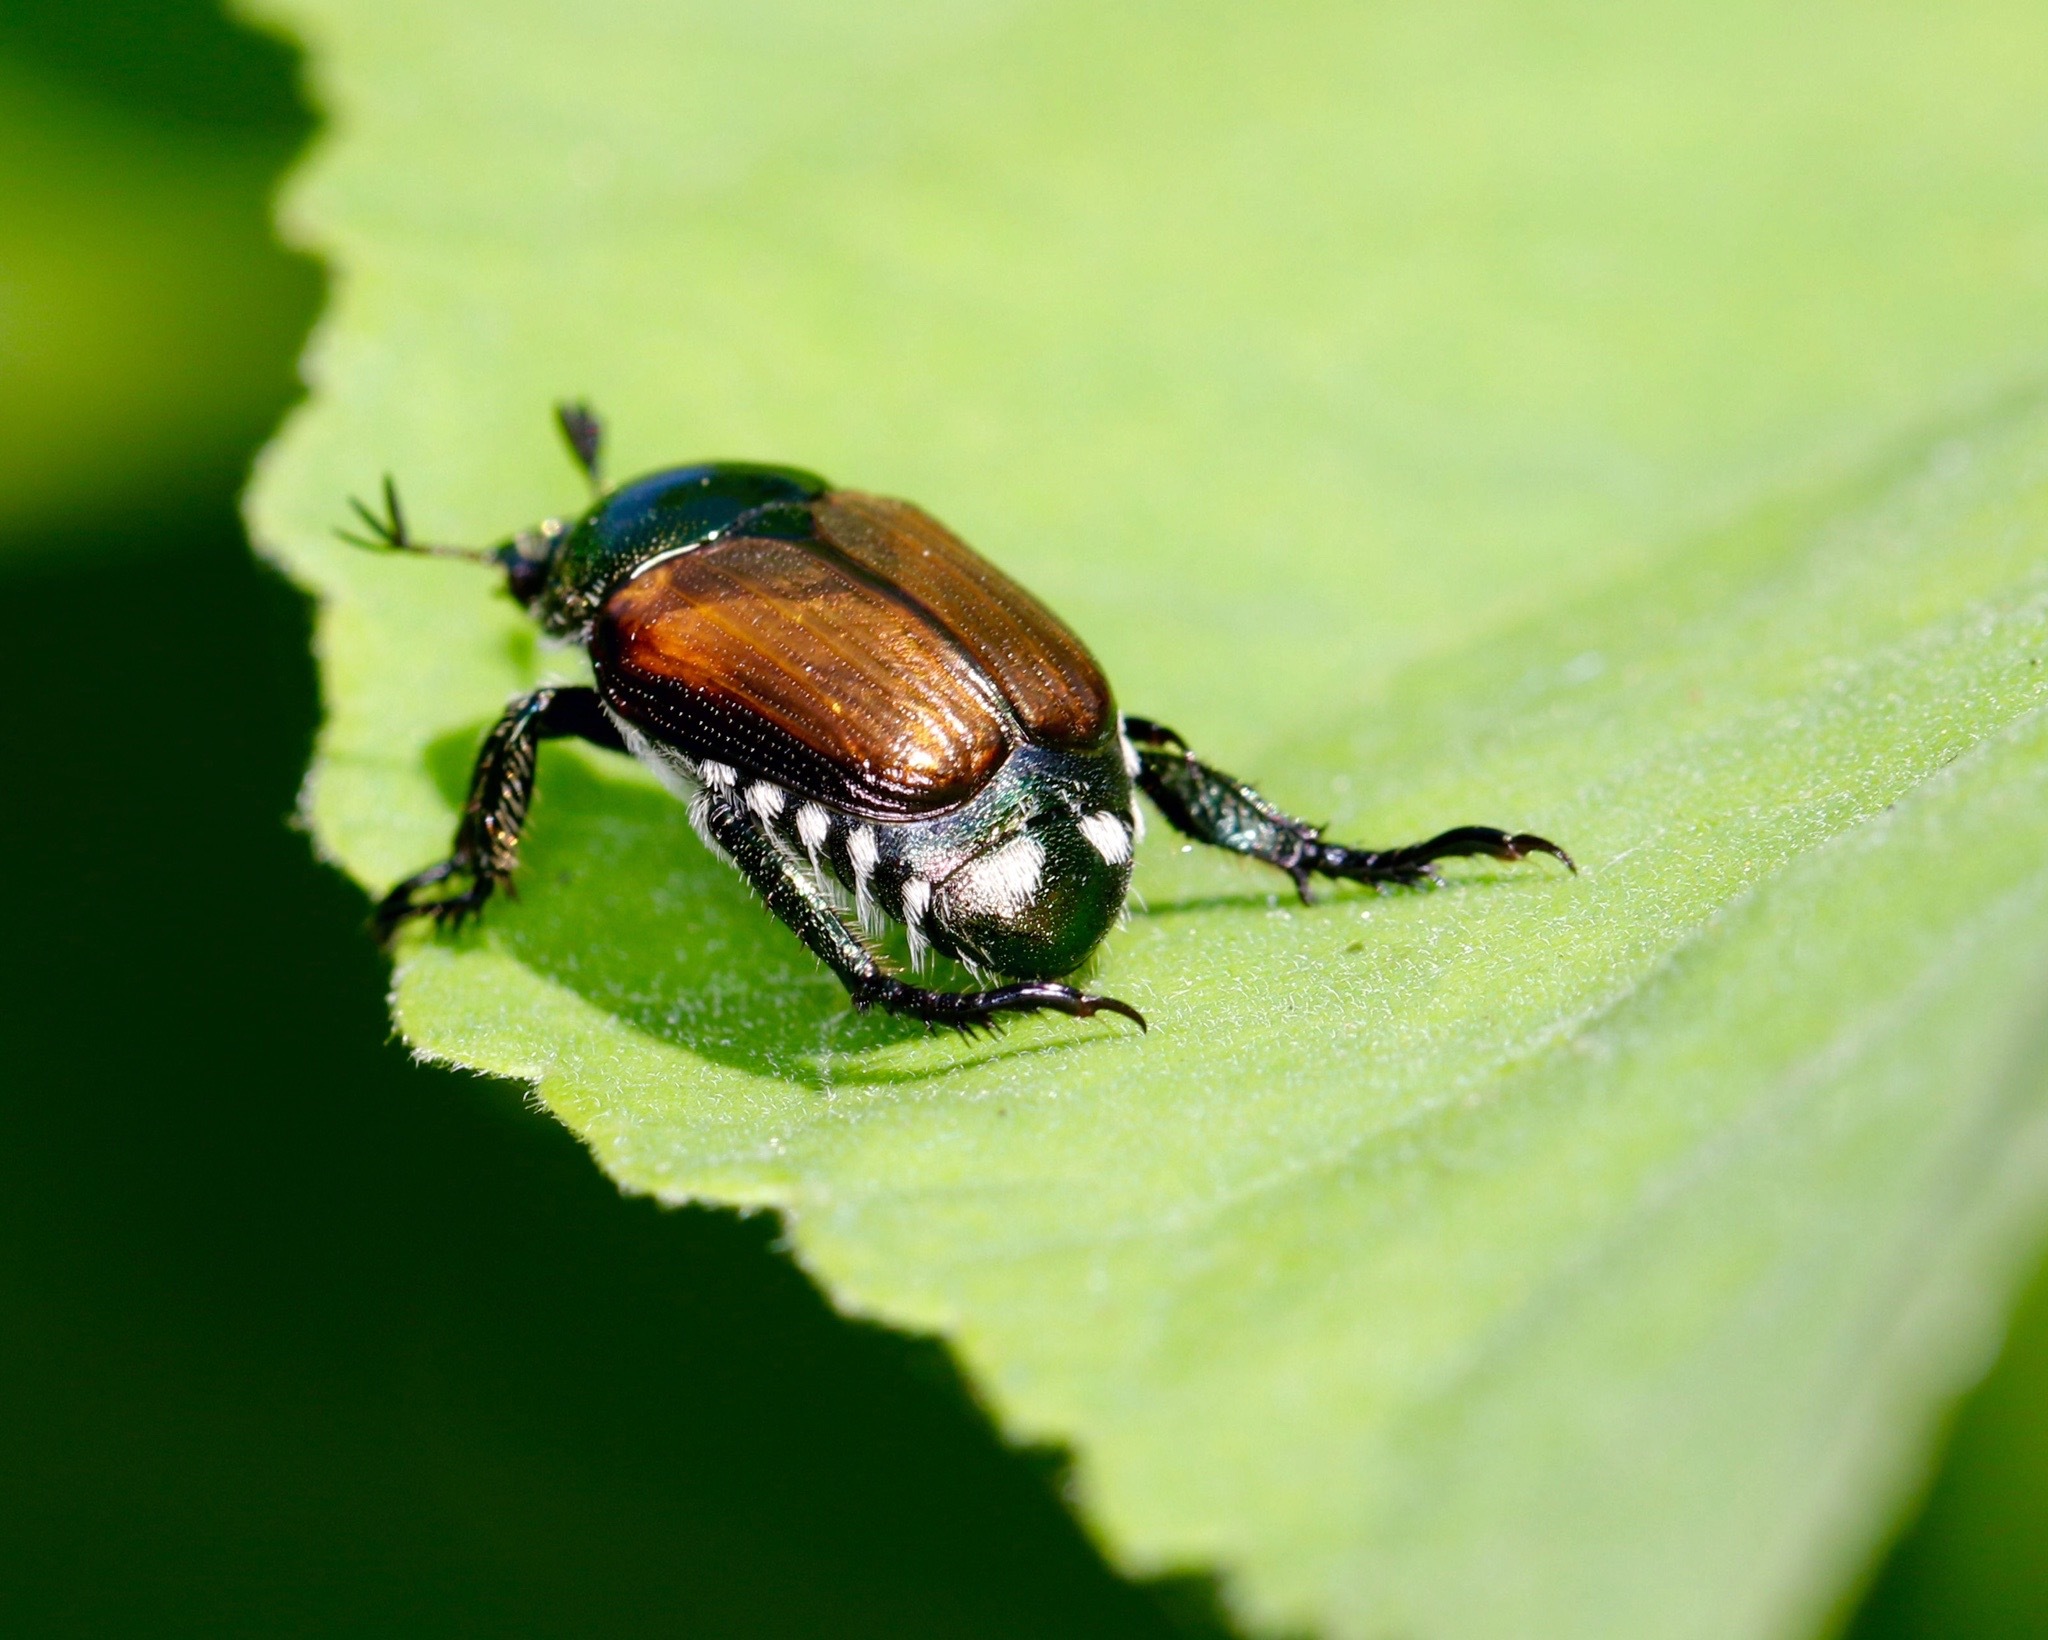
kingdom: Animalia
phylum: Arthropoda
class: Insecta
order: Coleoptera
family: Scarabaeidae
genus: Popillia
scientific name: Popillia japonica
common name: Japanese beetle
